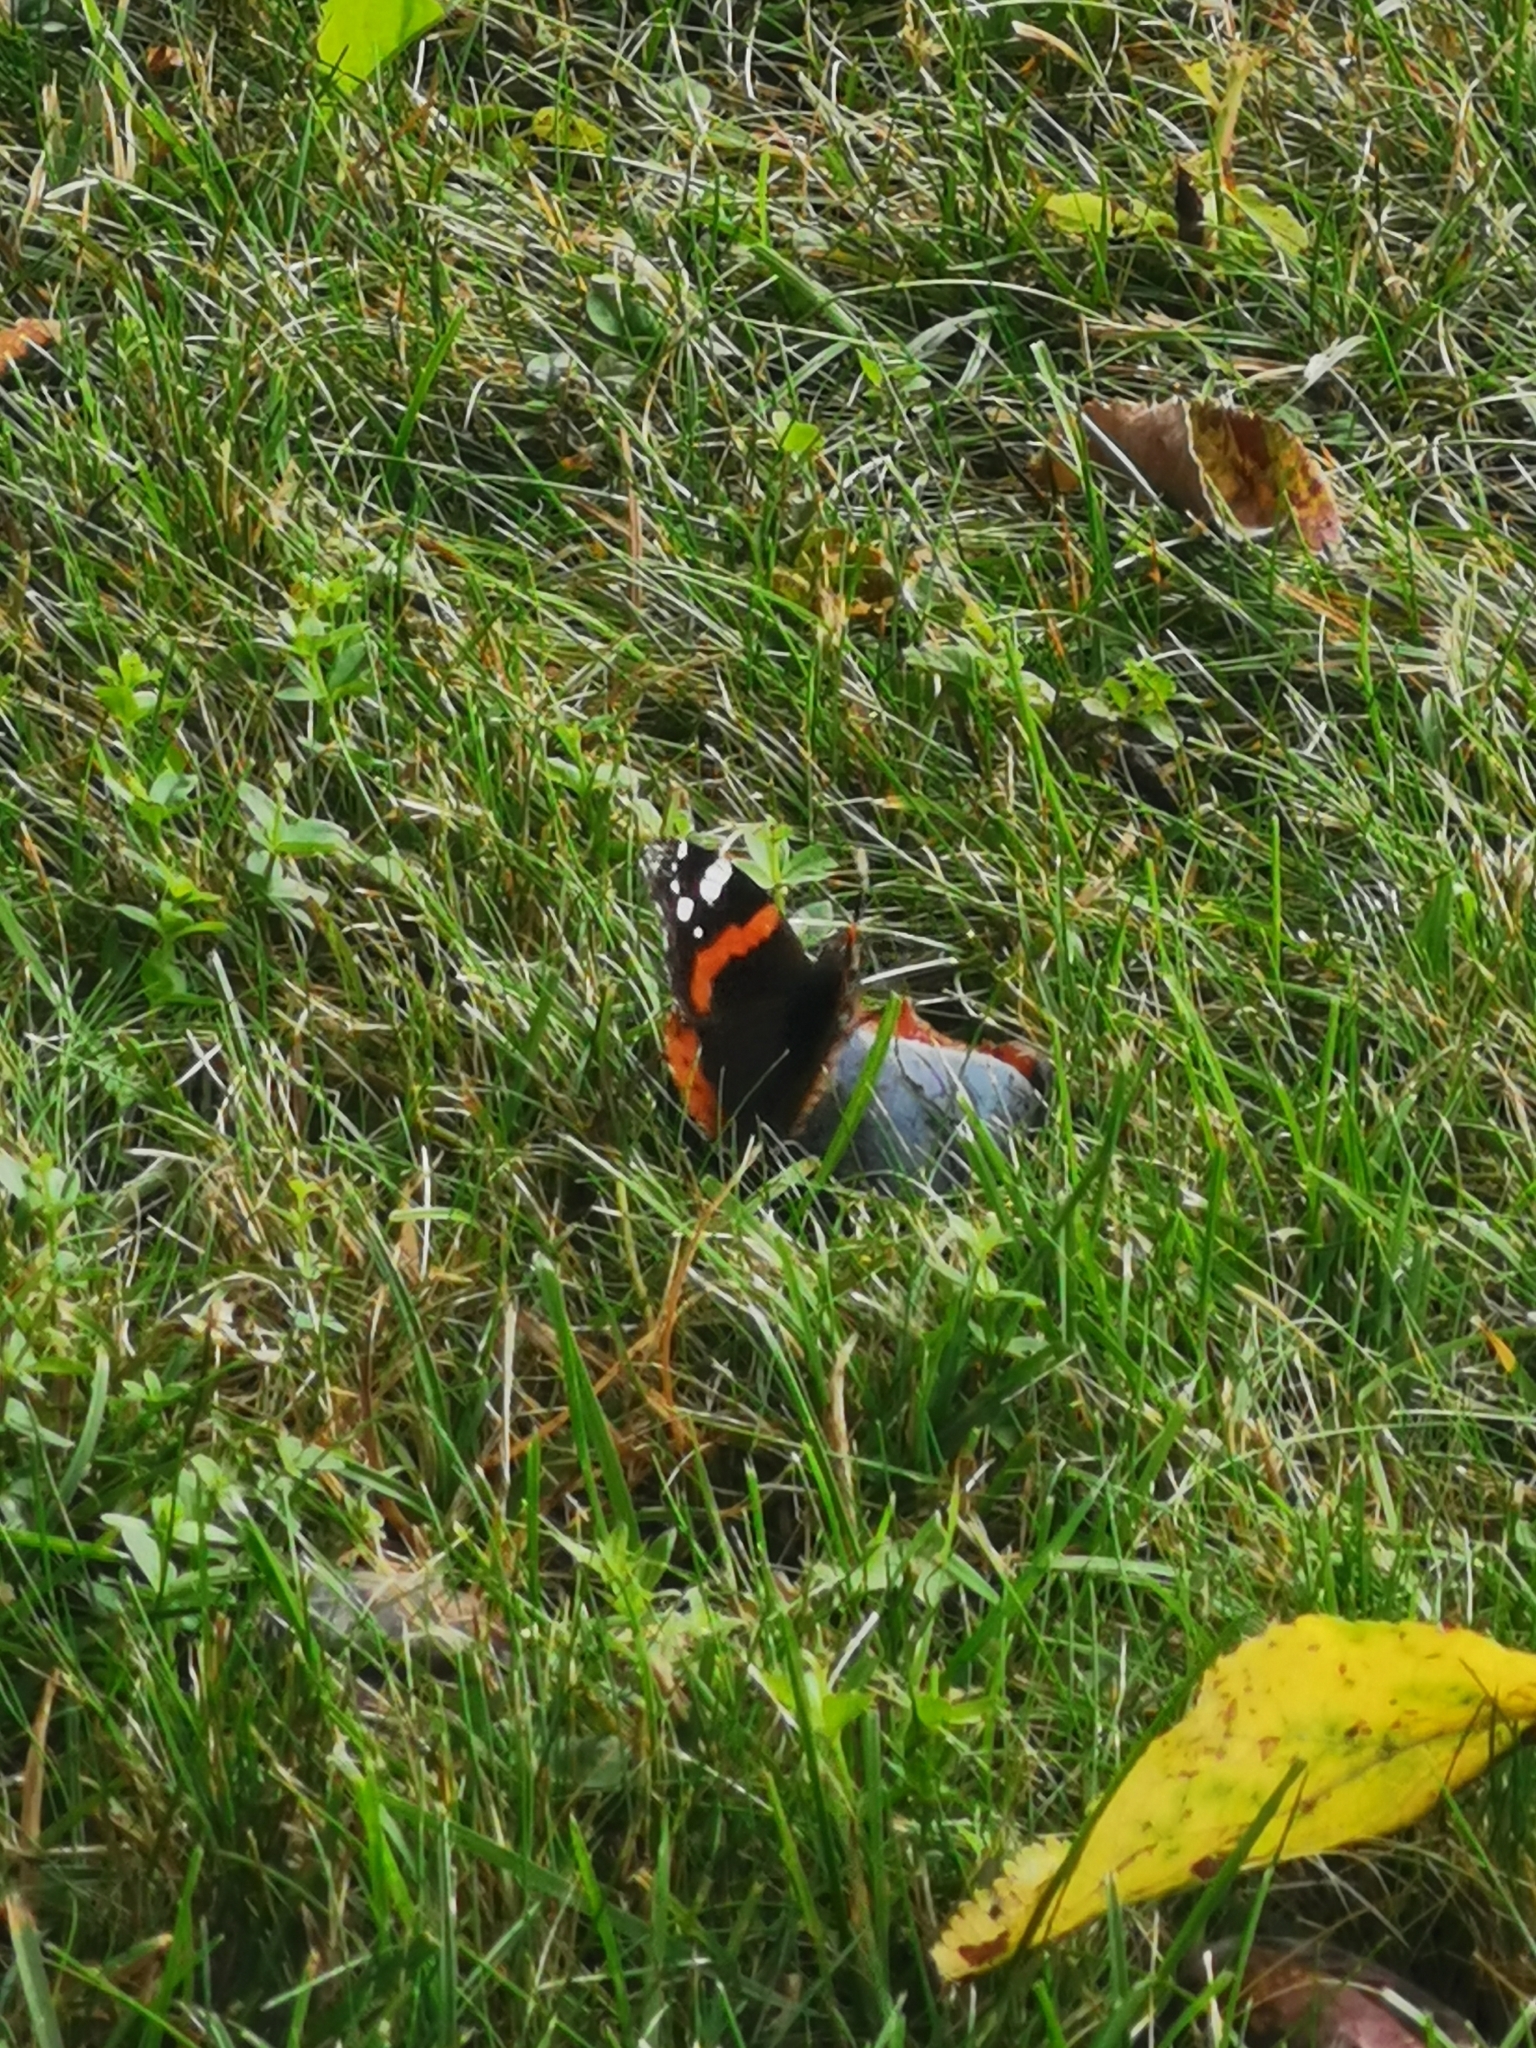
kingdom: Animalia
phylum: Arthropoda
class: Insecta
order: Lepidoptera
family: Nymphalidae
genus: Vanessa
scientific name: Vanessa atalanta
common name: Red admiral
